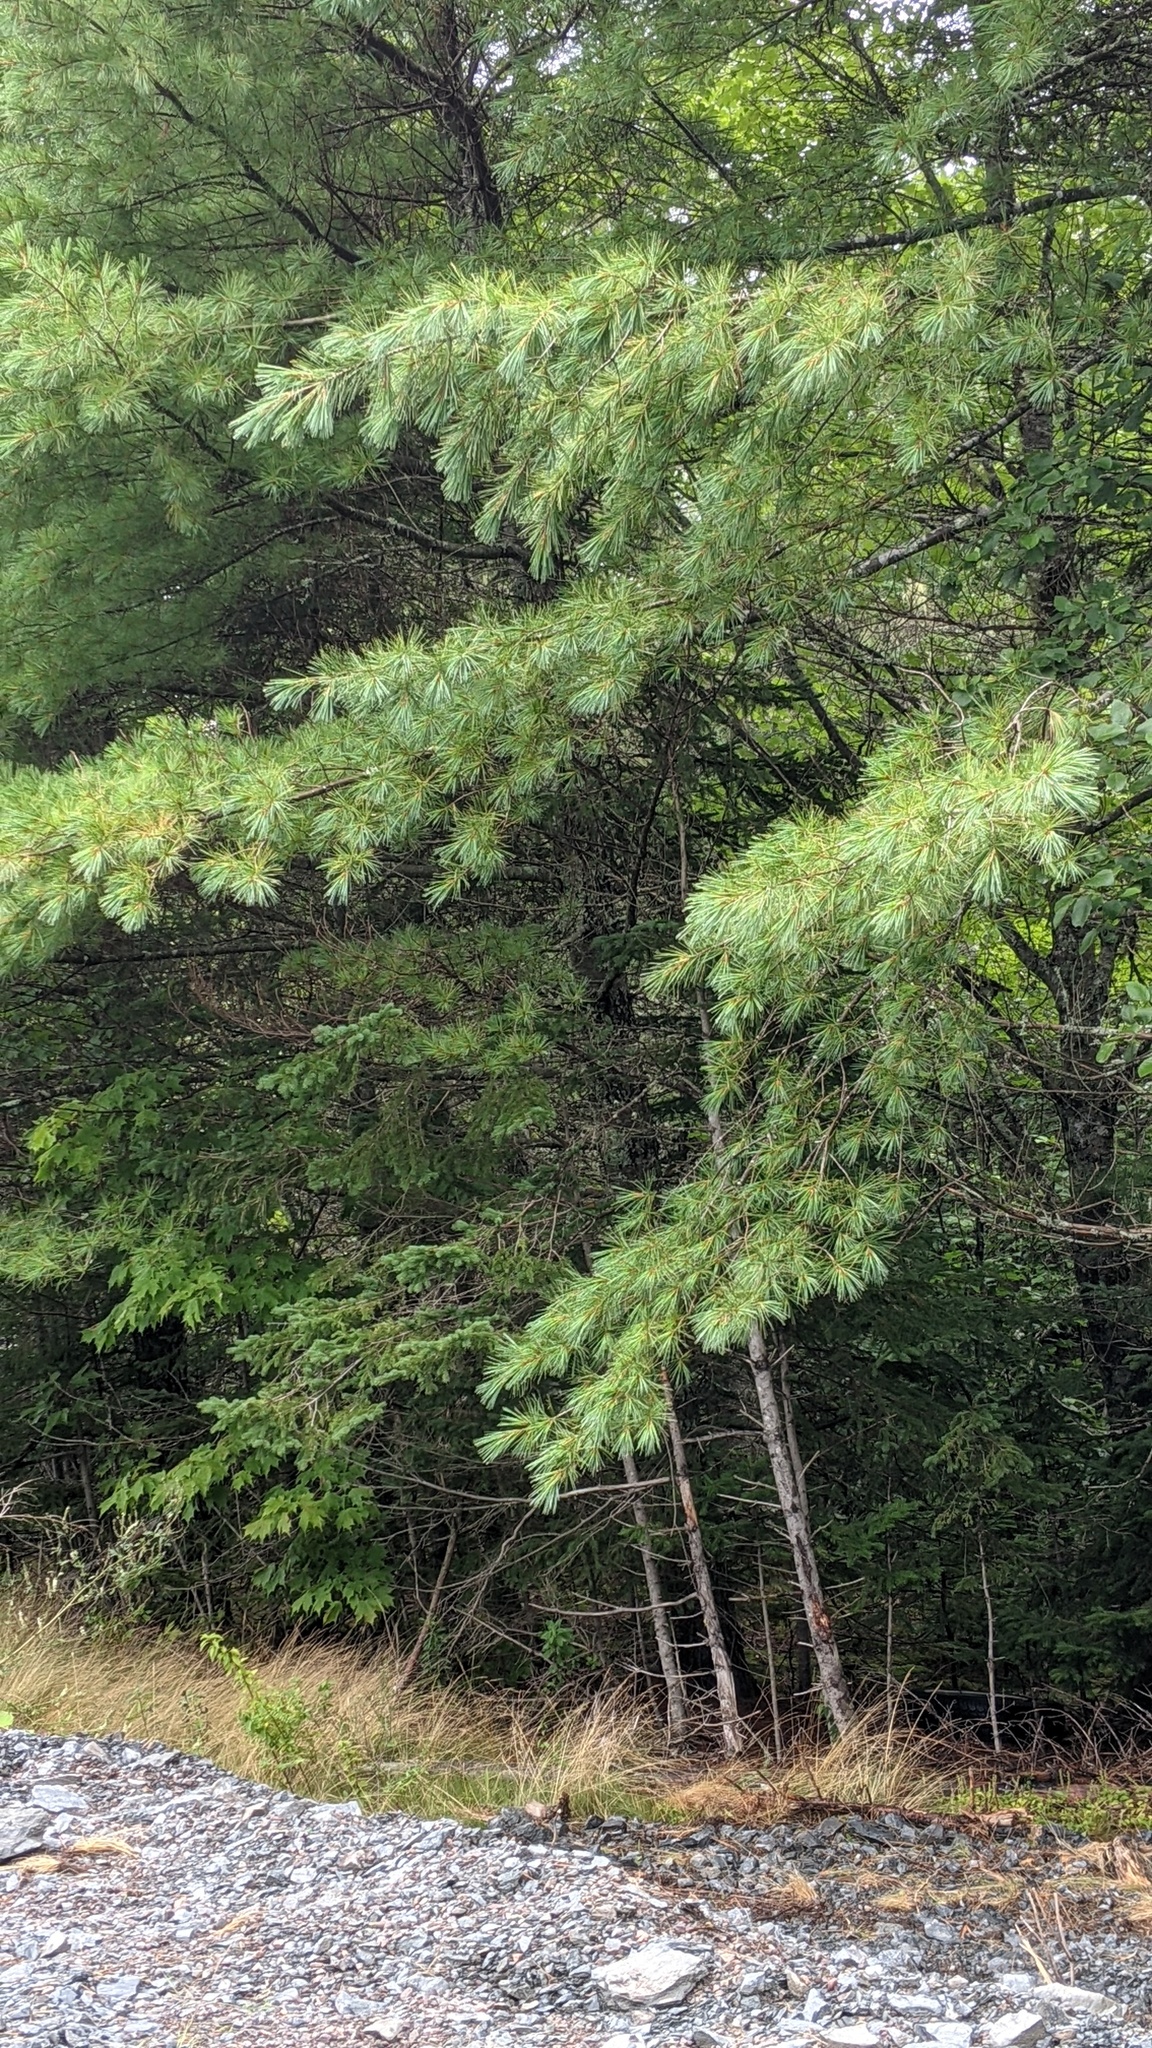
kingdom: Plantae
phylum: Tracheophyta
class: Pinopsida
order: Pinales
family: Pinaceae
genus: Pinus
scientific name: Pinus strobus
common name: Weymouth pine
